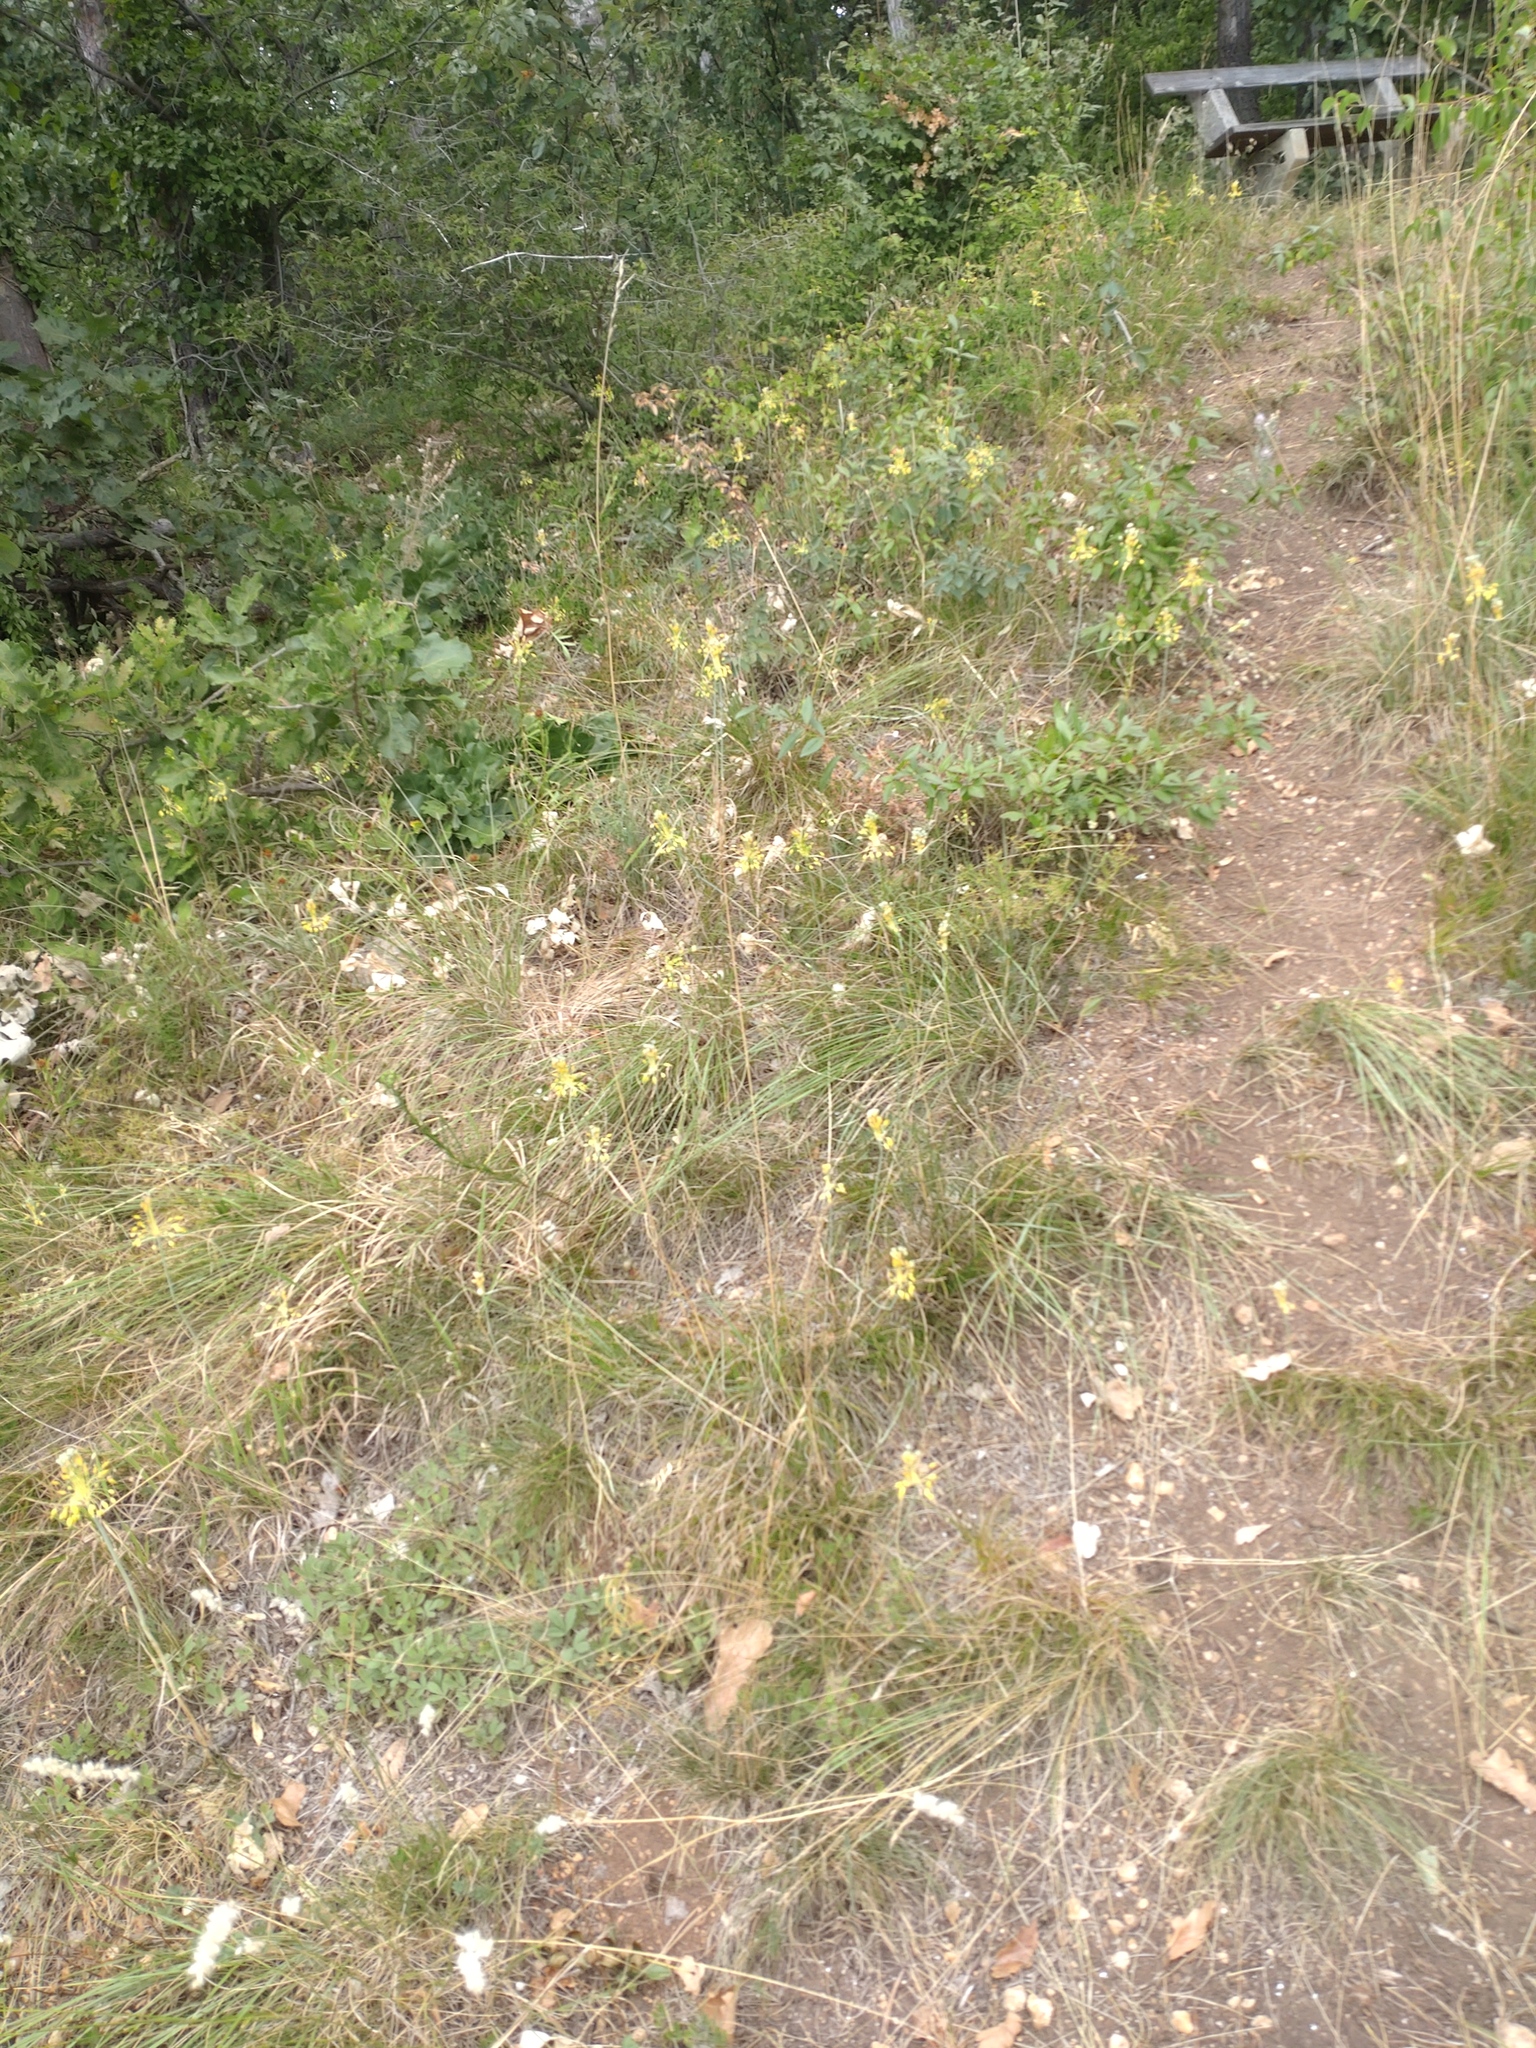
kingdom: Plantae
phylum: Tracheophyta
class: Liliopsida
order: Asparagales
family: Amaryllidaceae
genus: Allium
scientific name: Allium flavum
